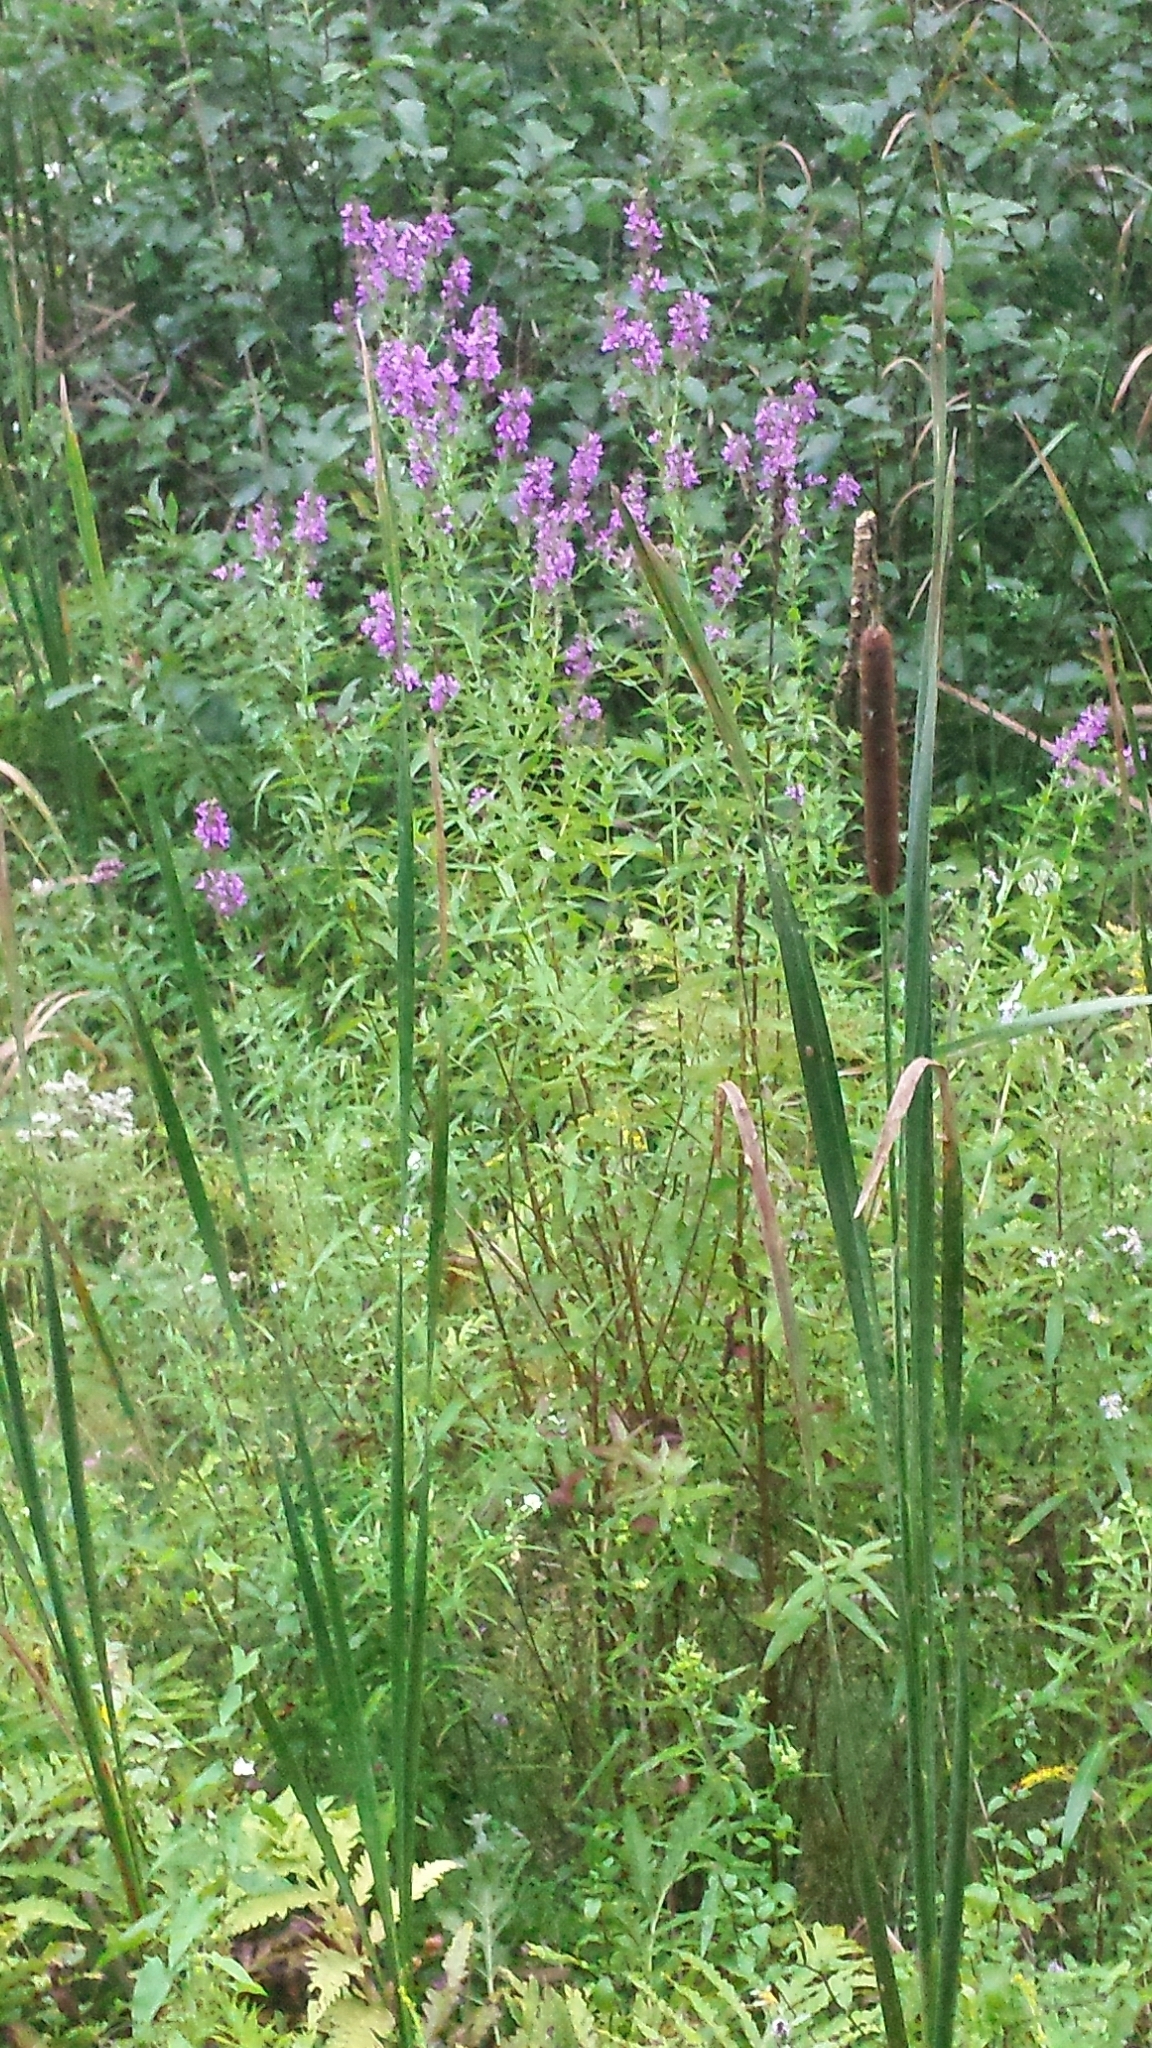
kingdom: Plantae
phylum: Tracheophyta
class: Magnoliopsida
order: Myrtales
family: Lythraceae
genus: Lythrum
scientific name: Lythrum salicaria
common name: Purple loosestrife
